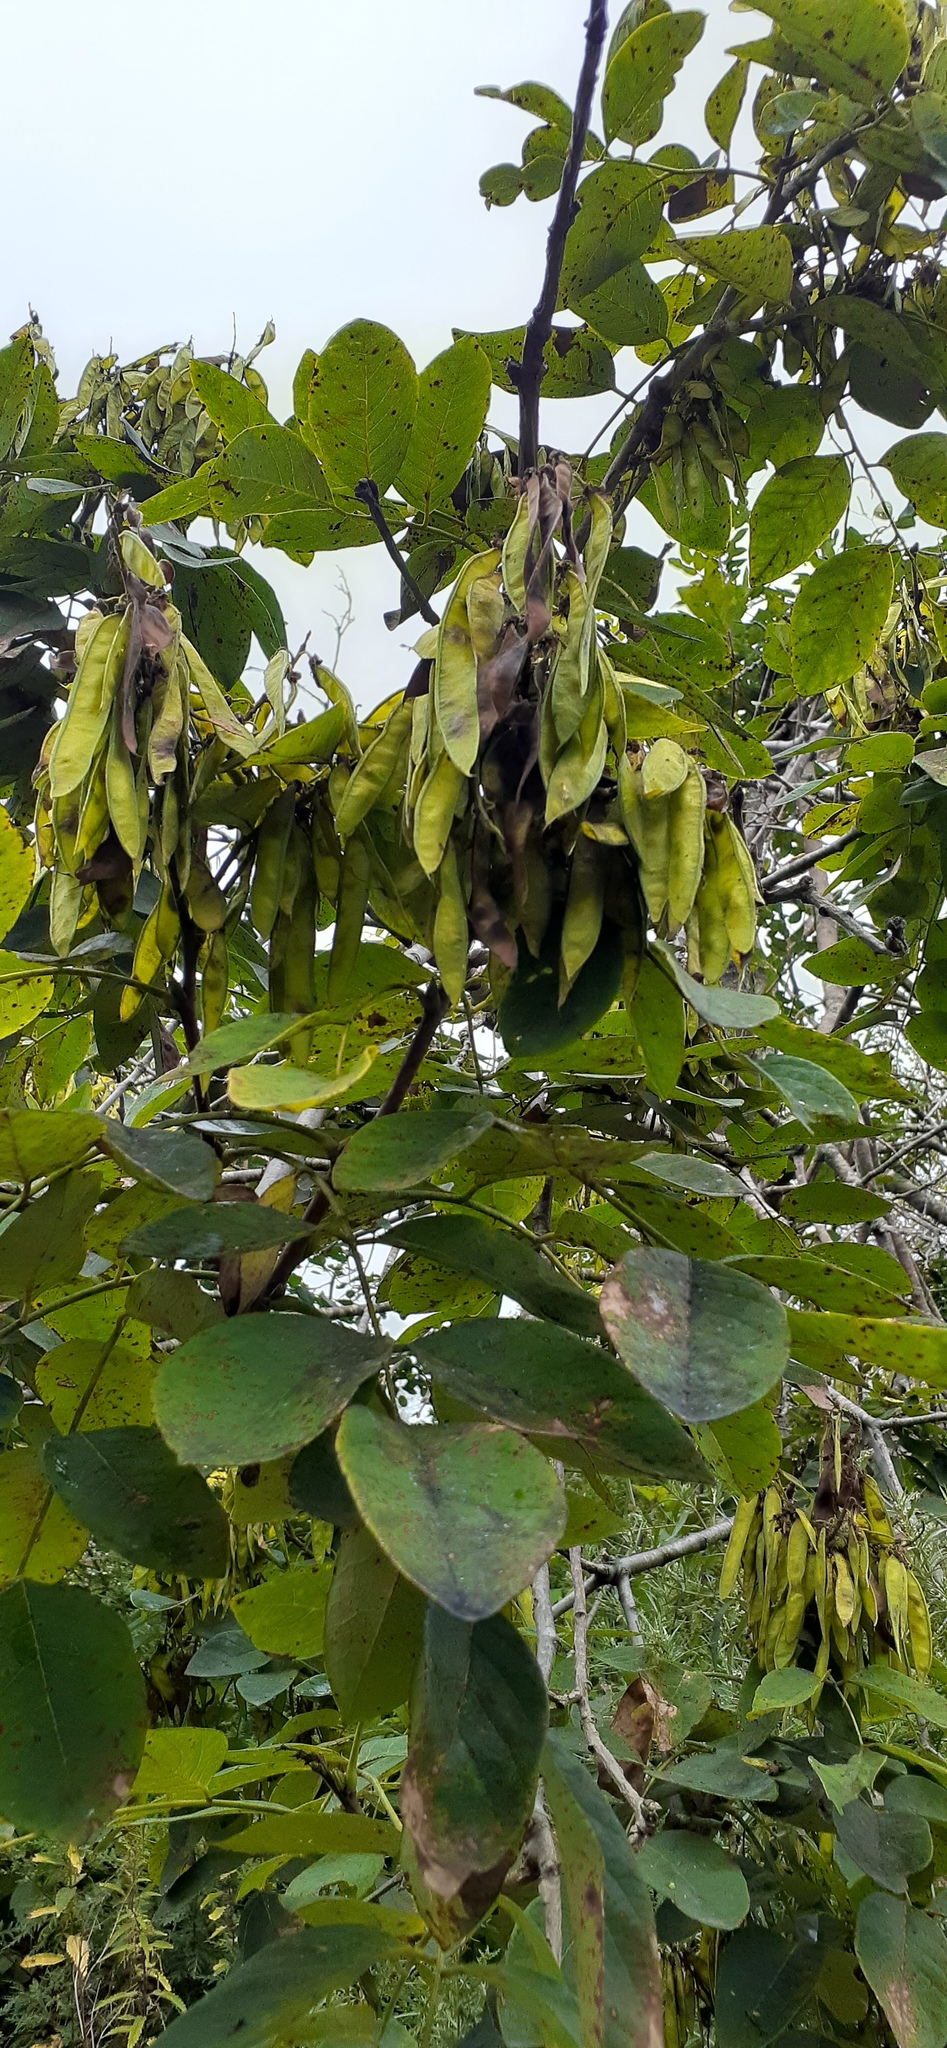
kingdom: Plantae
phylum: Tracheophyta
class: Magnoliopsida
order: Fabales
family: Fabaceae
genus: Maackia
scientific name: Maackia amurensis
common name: Amur maackia
